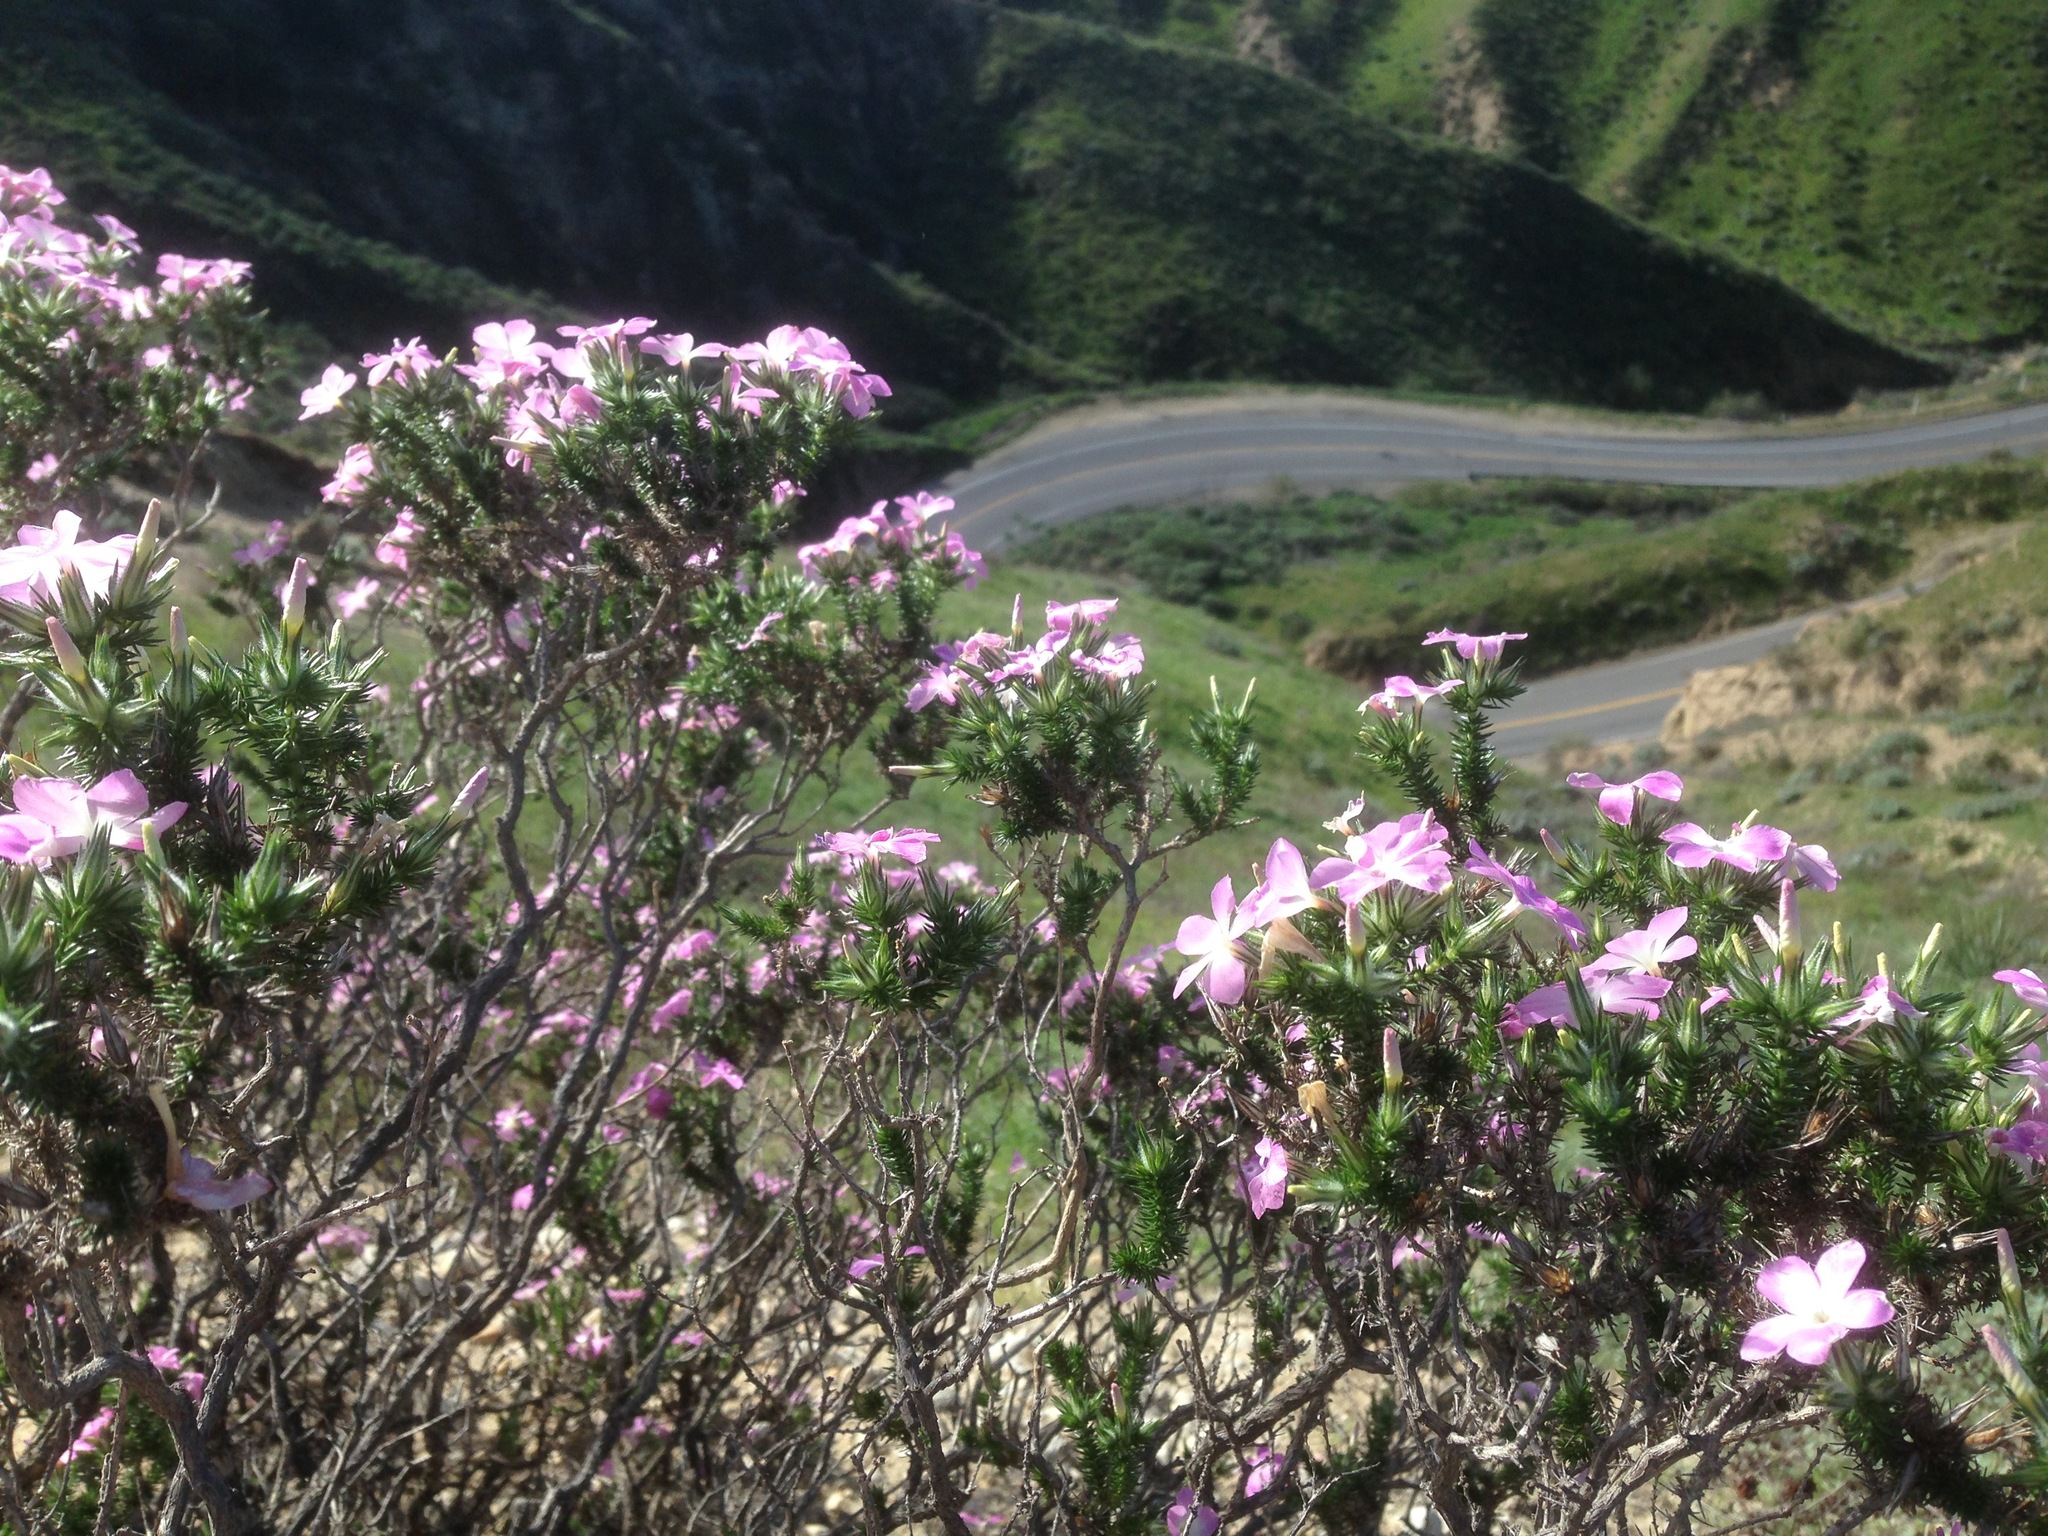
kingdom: Plantae
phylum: Tracheophyta
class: Magnoliopsida
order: Ericales
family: Polemoniaceae
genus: Linanthus
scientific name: Linanthus californicus
